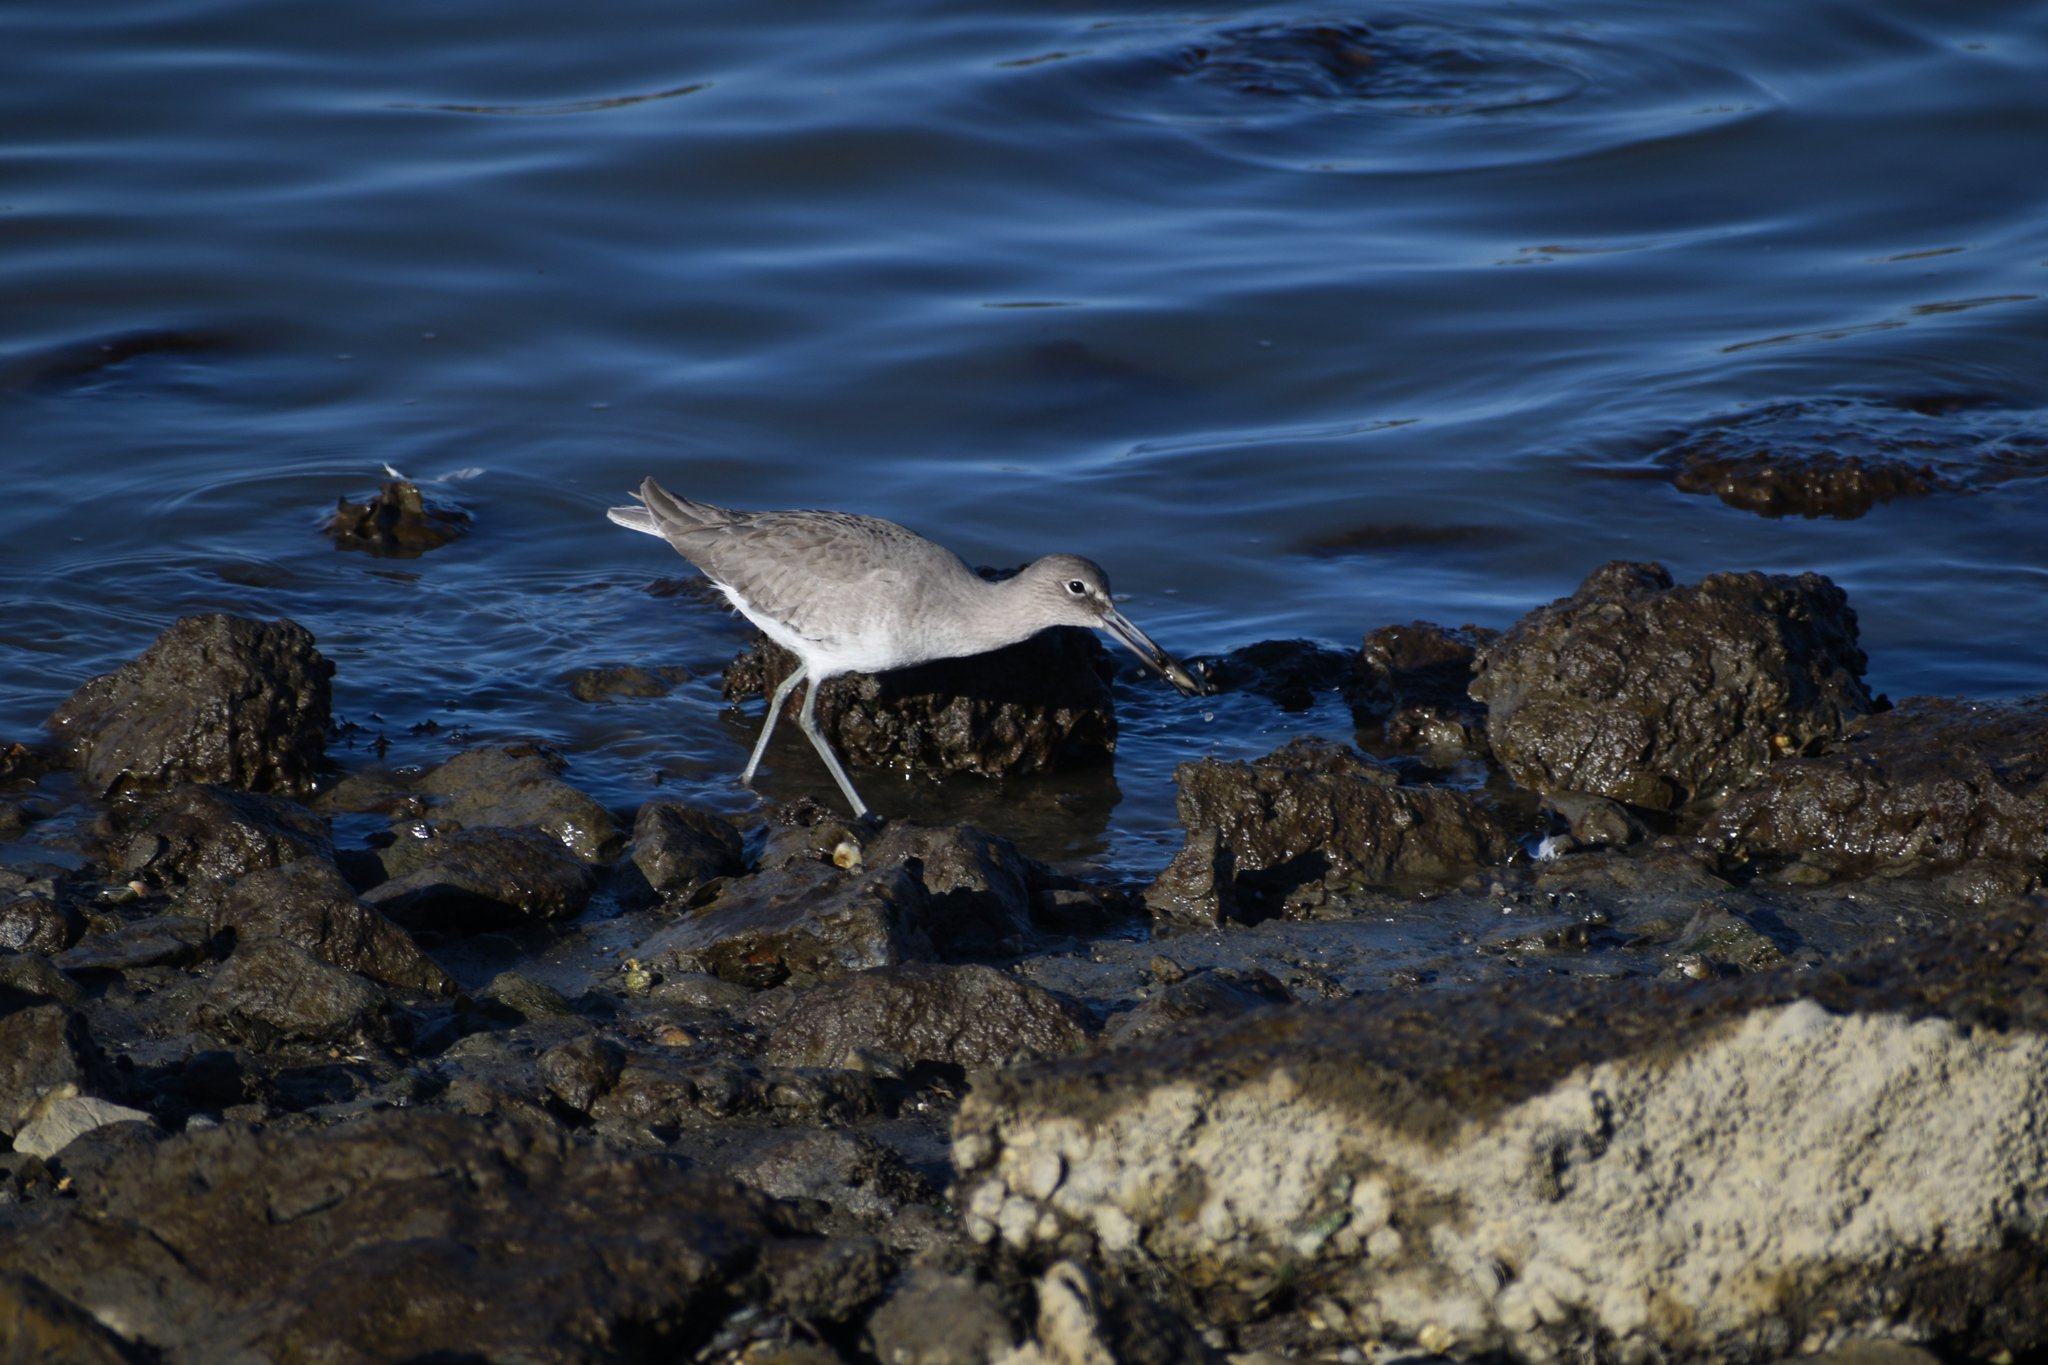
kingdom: Animalia
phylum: Chordata
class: Aves
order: Charadriiformes
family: Scolopacidae
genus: Tringa
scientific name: Tringa semipalmata
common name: Willet
